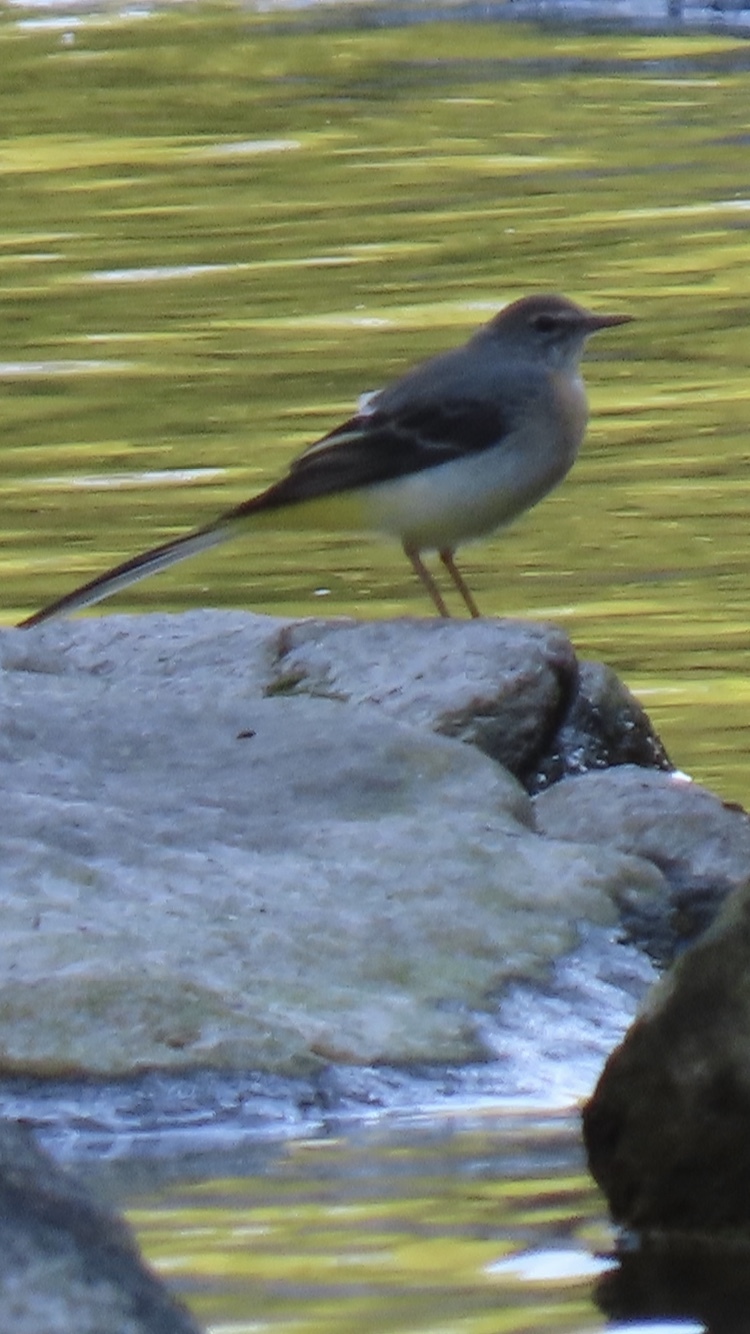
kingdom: Animalia
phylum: Chordata
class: Aves
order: Passeriformes
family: Motacillidae
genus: Motacilla
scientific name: Motacilla cinerea
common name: Grey wagtail
